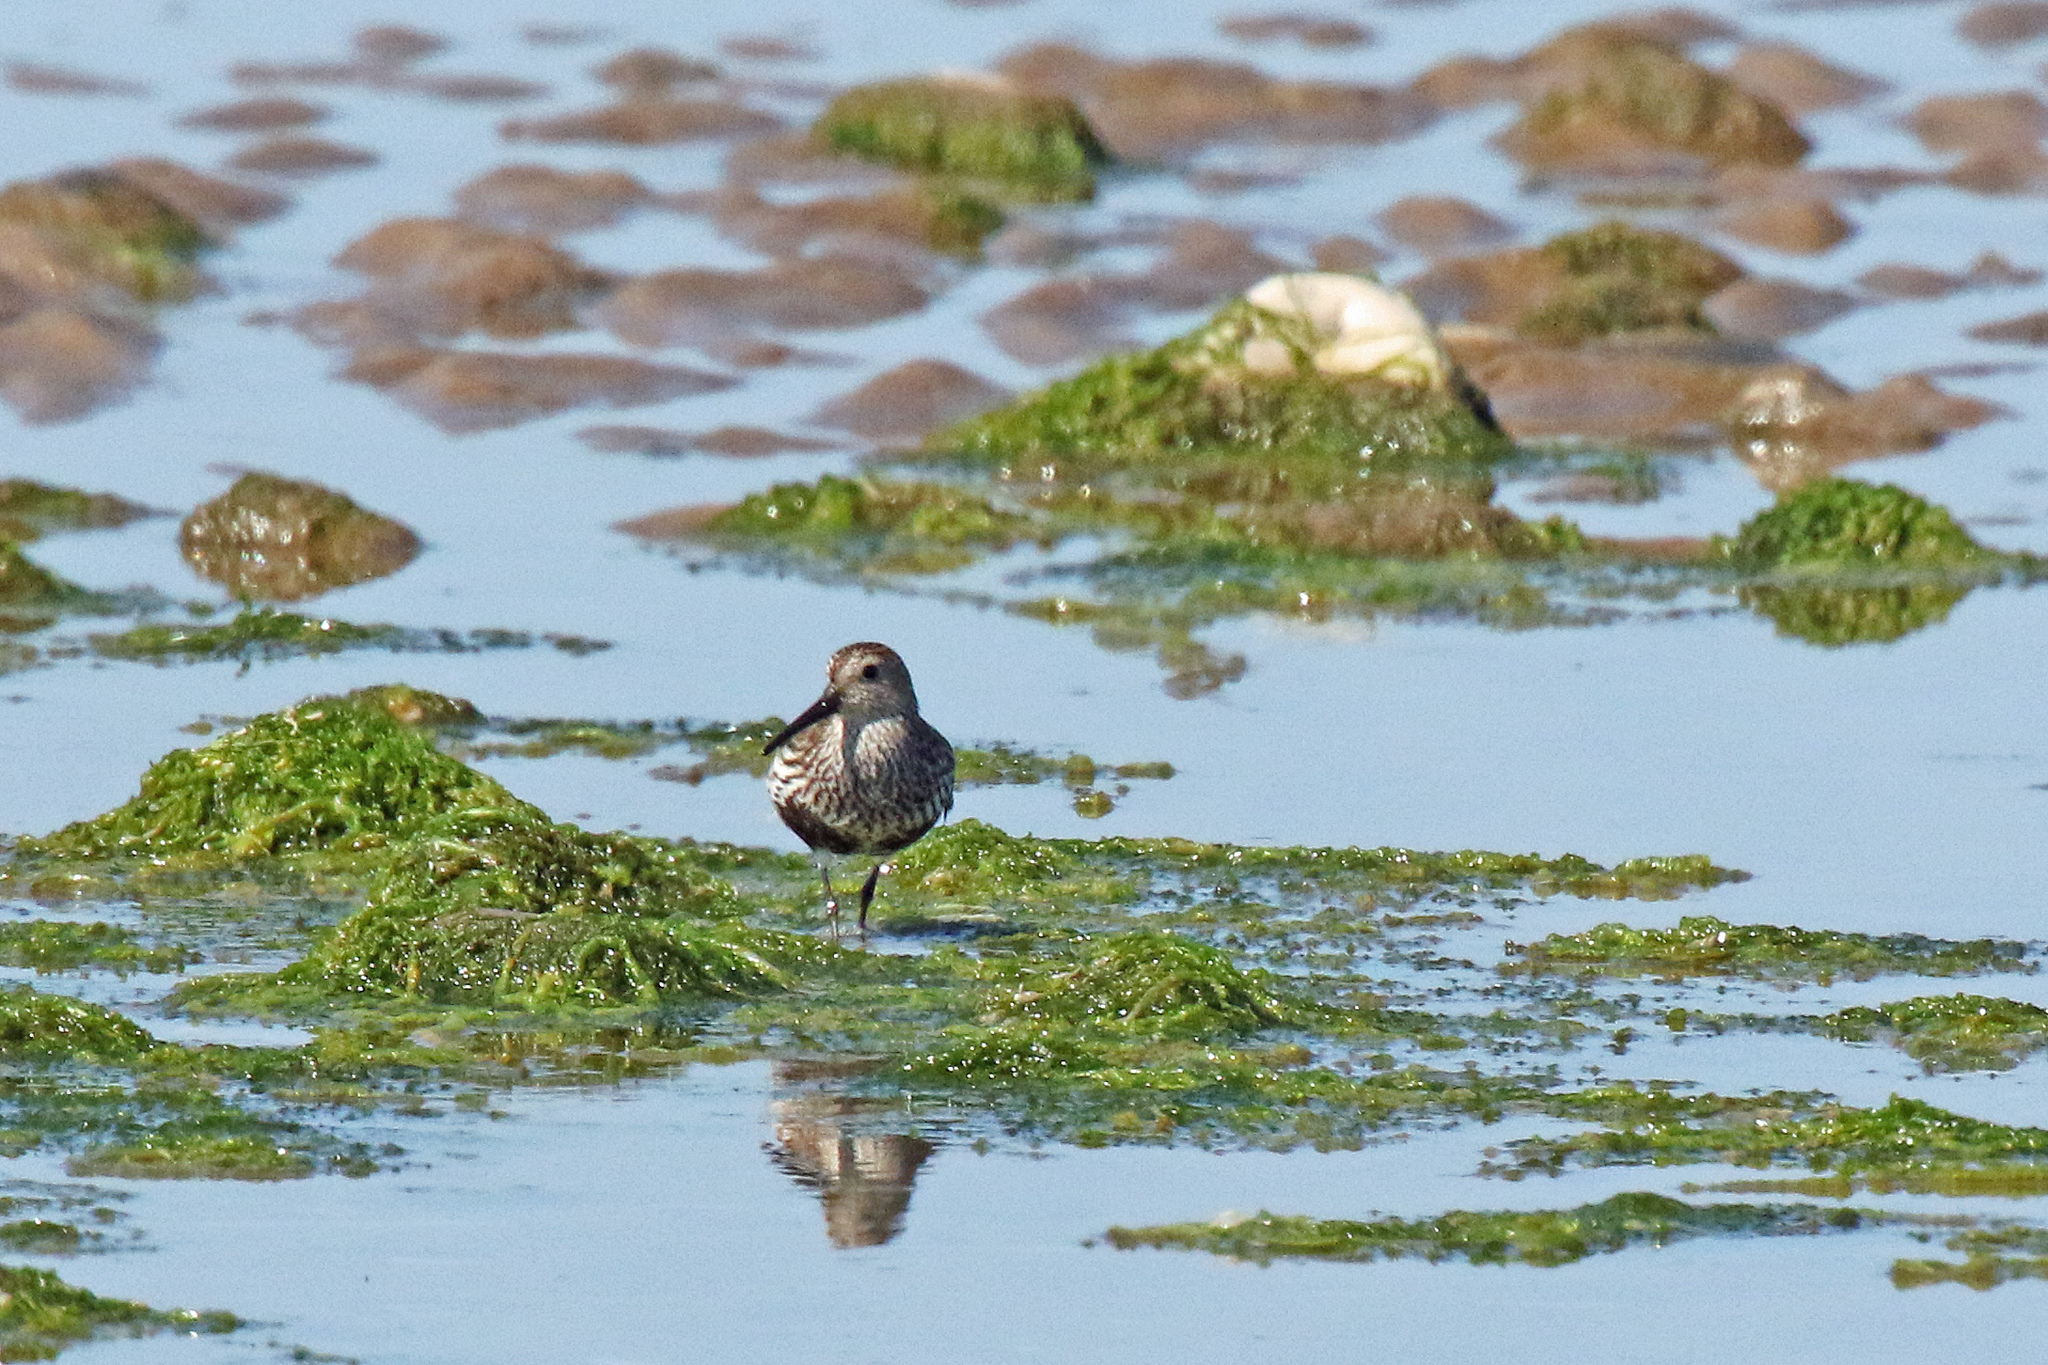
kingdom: Animalia
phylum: Chordata
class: Aves
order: Charadriiformes
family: Scolopacidae
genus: Calidris
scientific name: Calidris alpina
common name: Dunlin
